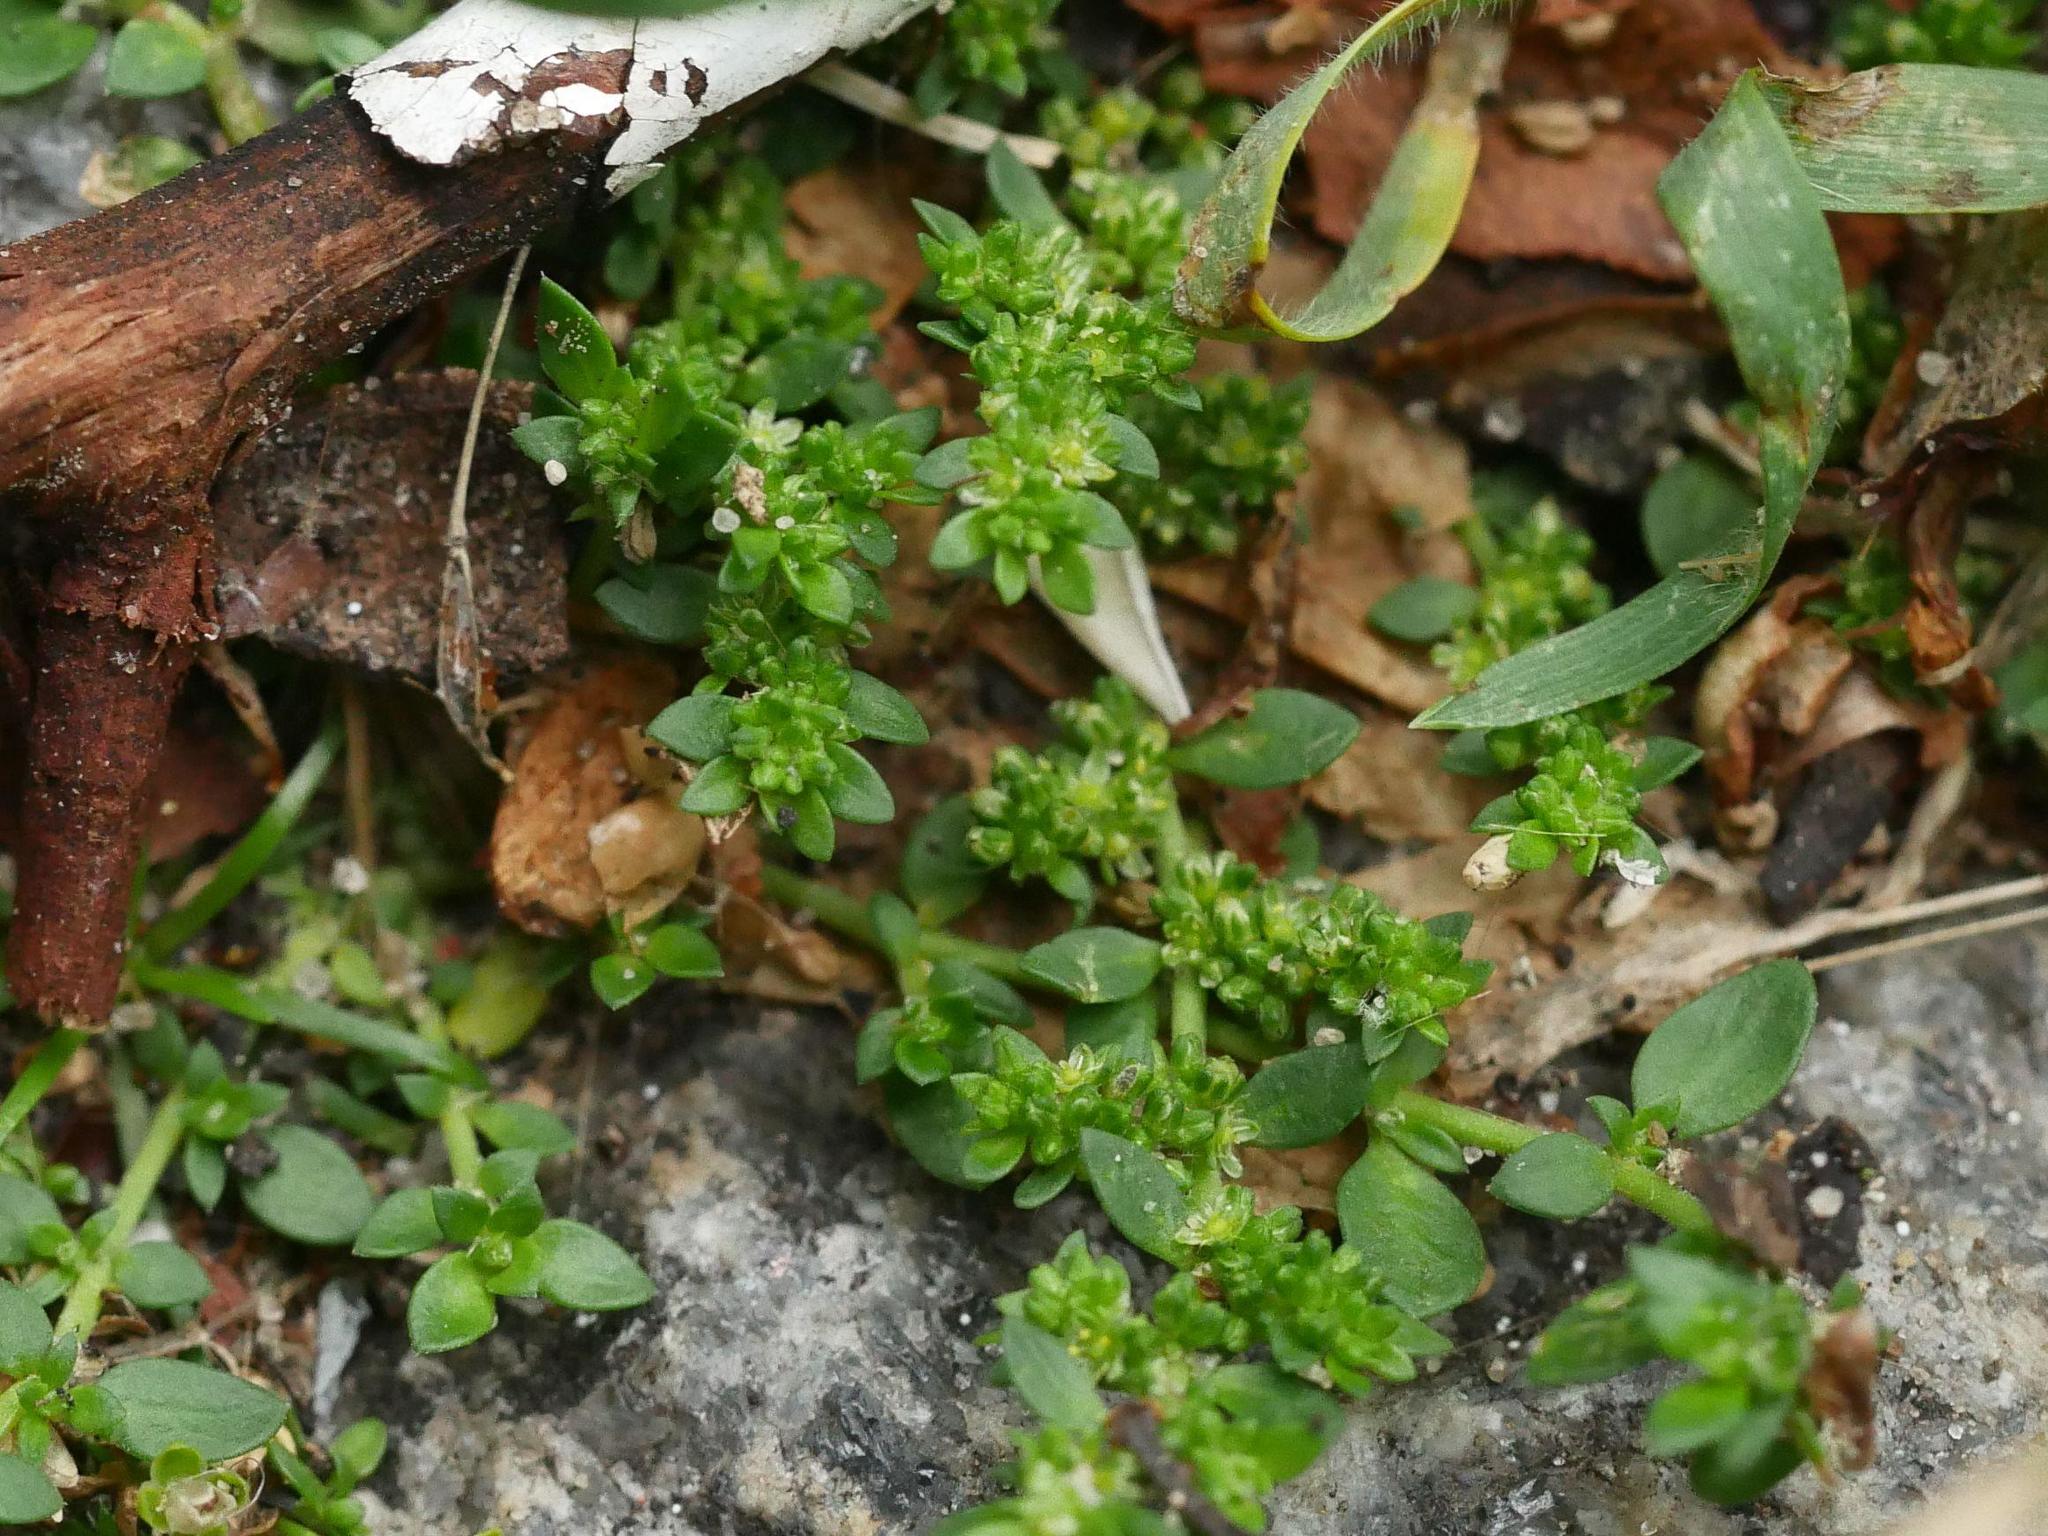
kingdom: Plantae
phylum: Tracheophyta
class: Magnoliopsida
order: Caryophyllales
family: Caryophyllaceae
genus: Herniaria
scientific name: Herniaria glabra
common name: Smooth rupturewort
